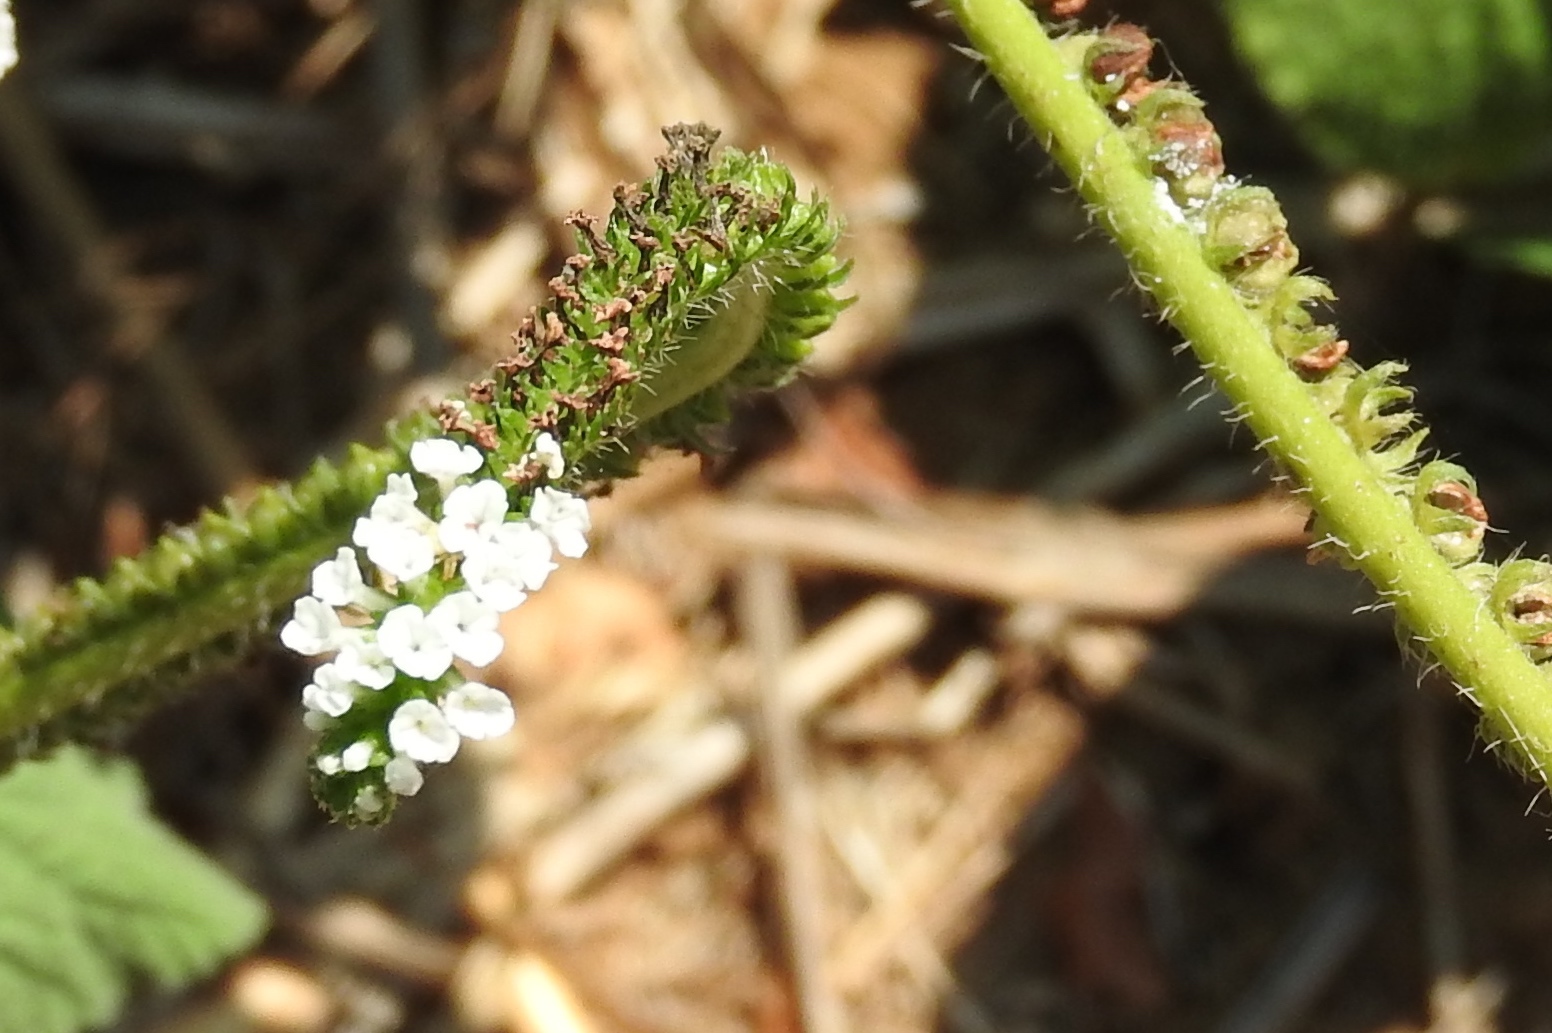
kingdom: Plantae
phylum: Tracheophyta
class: Magnoliopsida
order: Boraginales
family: Heliotropiaceae
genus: Heliotropium
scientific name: Heliotropium indicum
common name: Indian heliotrope
